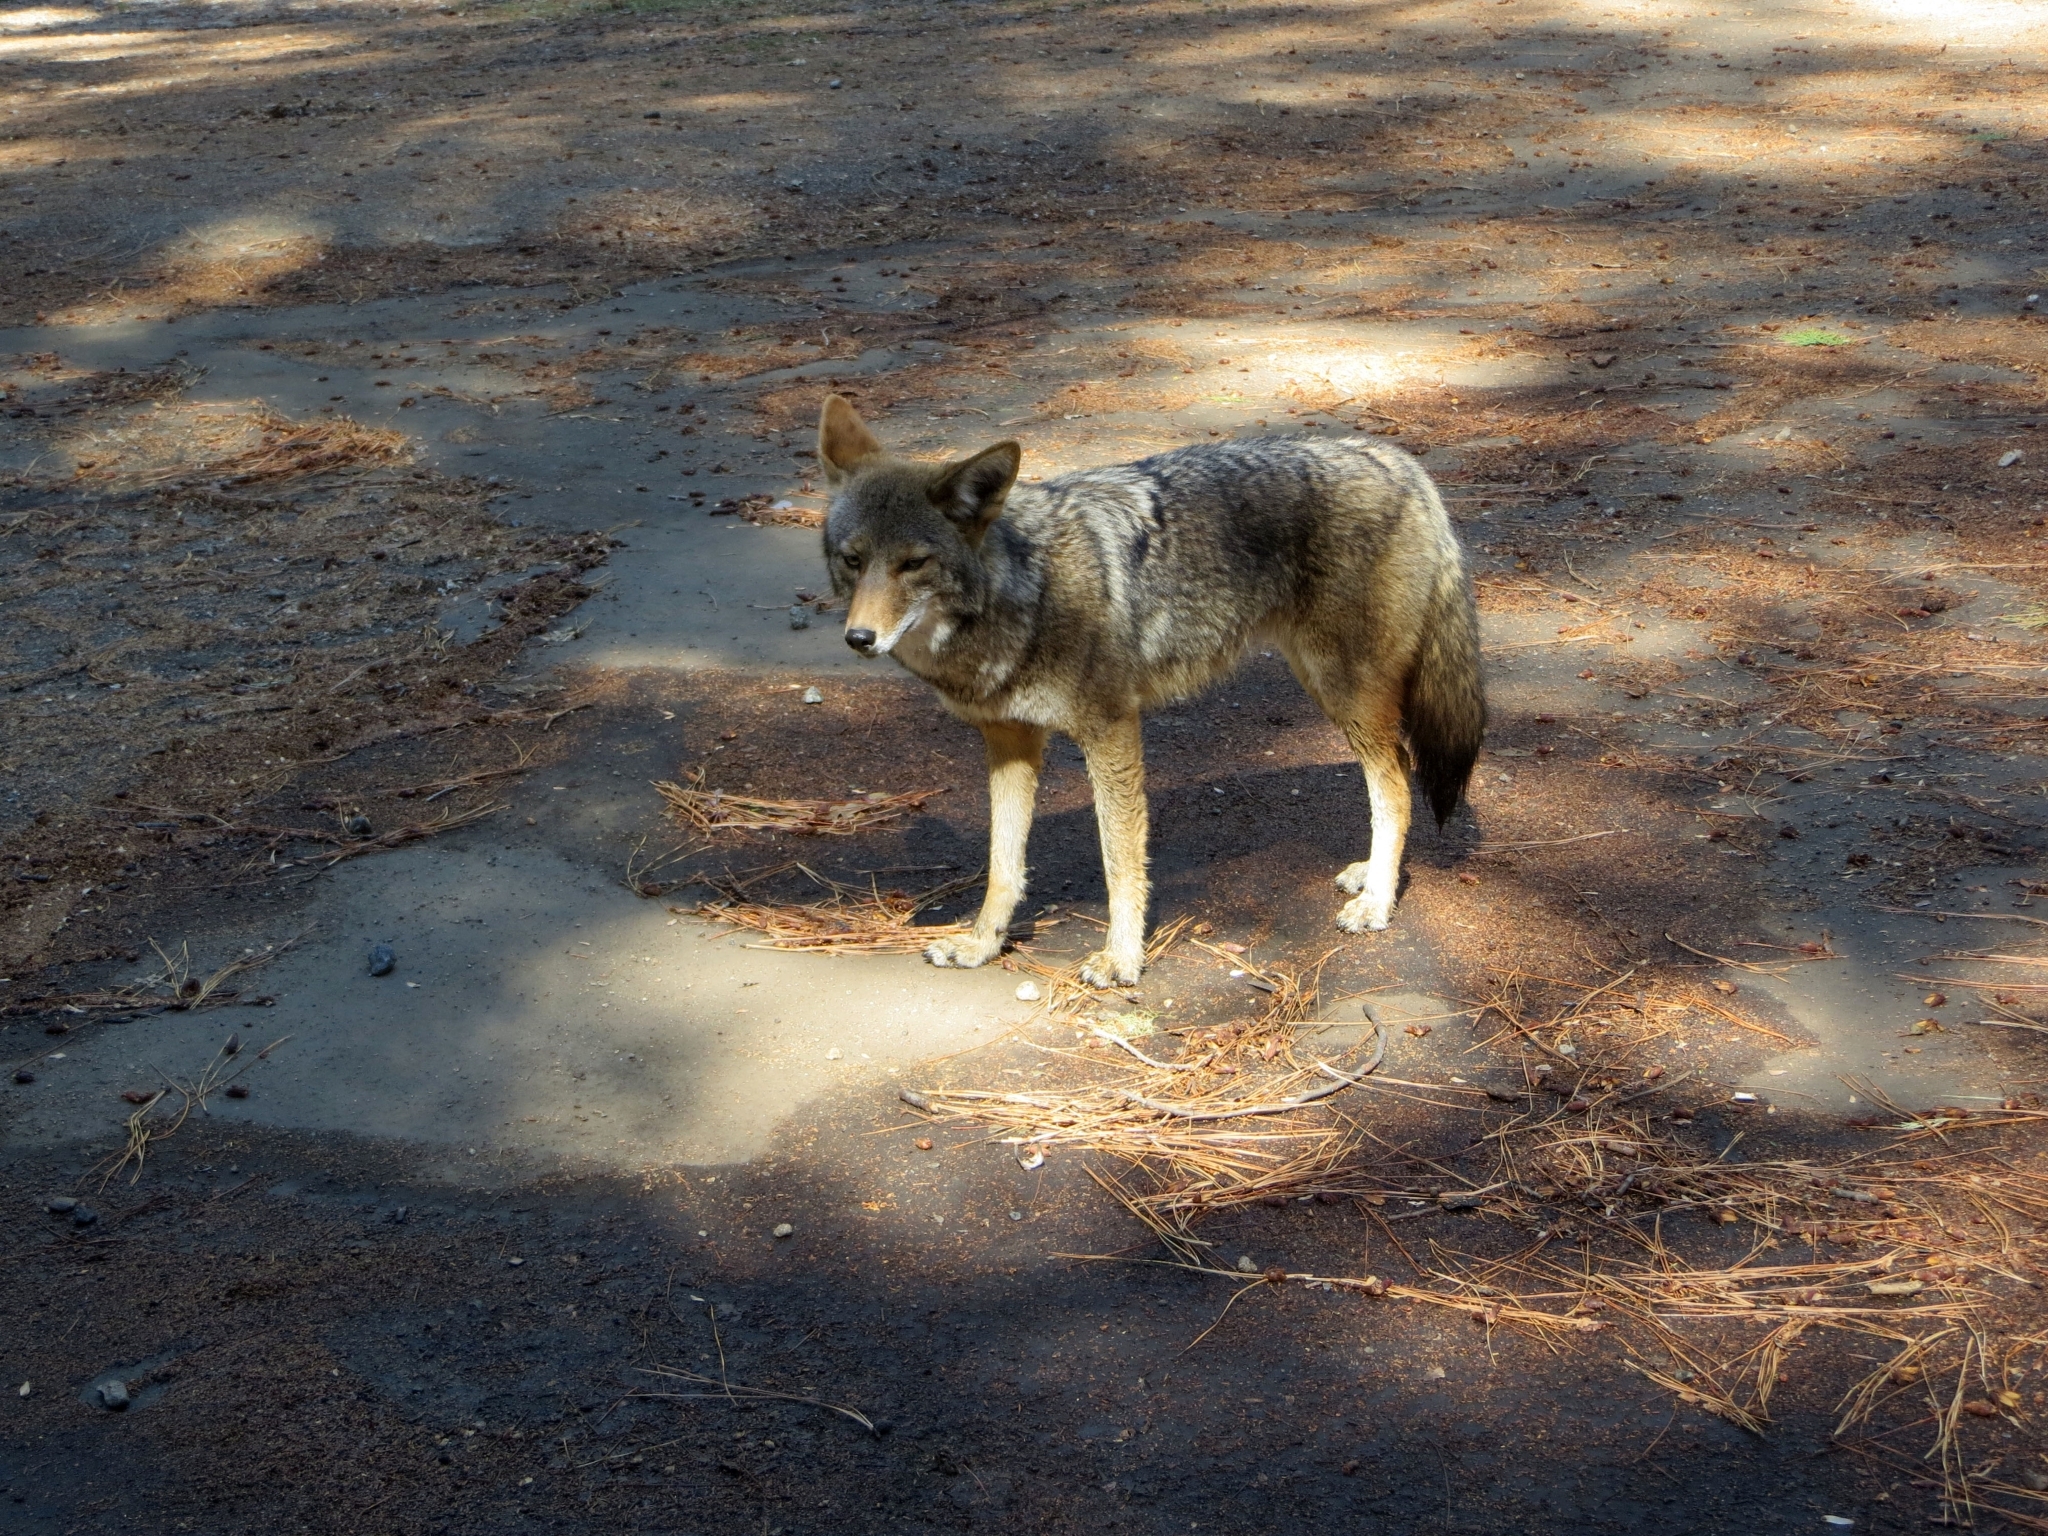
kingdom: Animalia
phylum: Chordata
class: Mammalia
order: Carnivora
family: Canidae
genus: Canis
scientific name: Canis latrans
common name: Coyote
